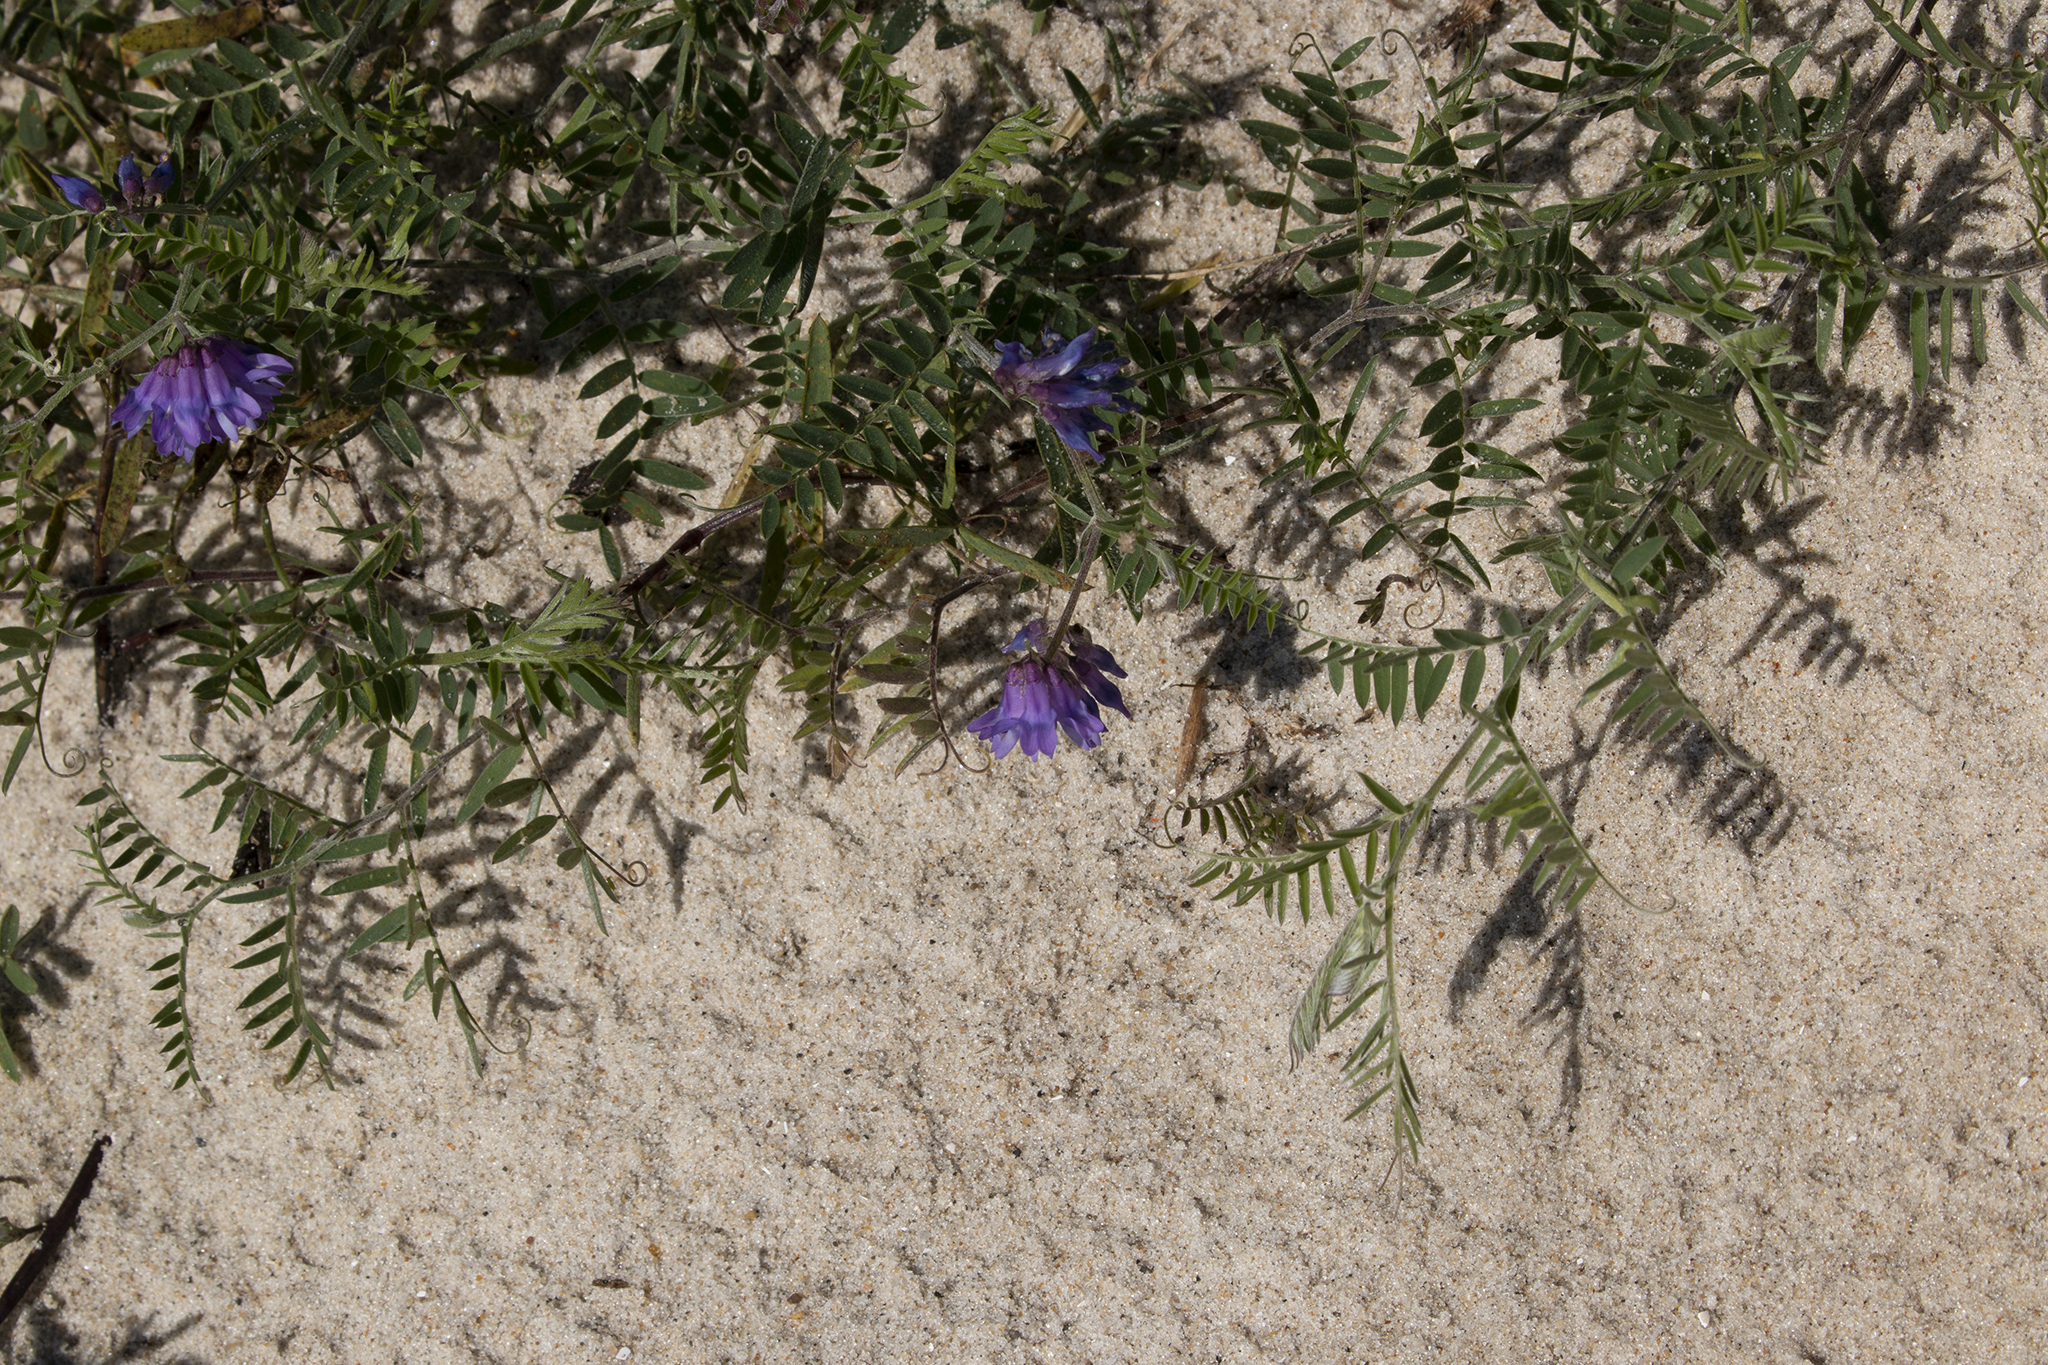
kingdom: Plantae
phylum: Tracheophyta
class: Magnoliopsida
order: Fabales
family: Fabaceae
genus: Vicia
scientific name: Vicia cracca
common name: Bird vetch
